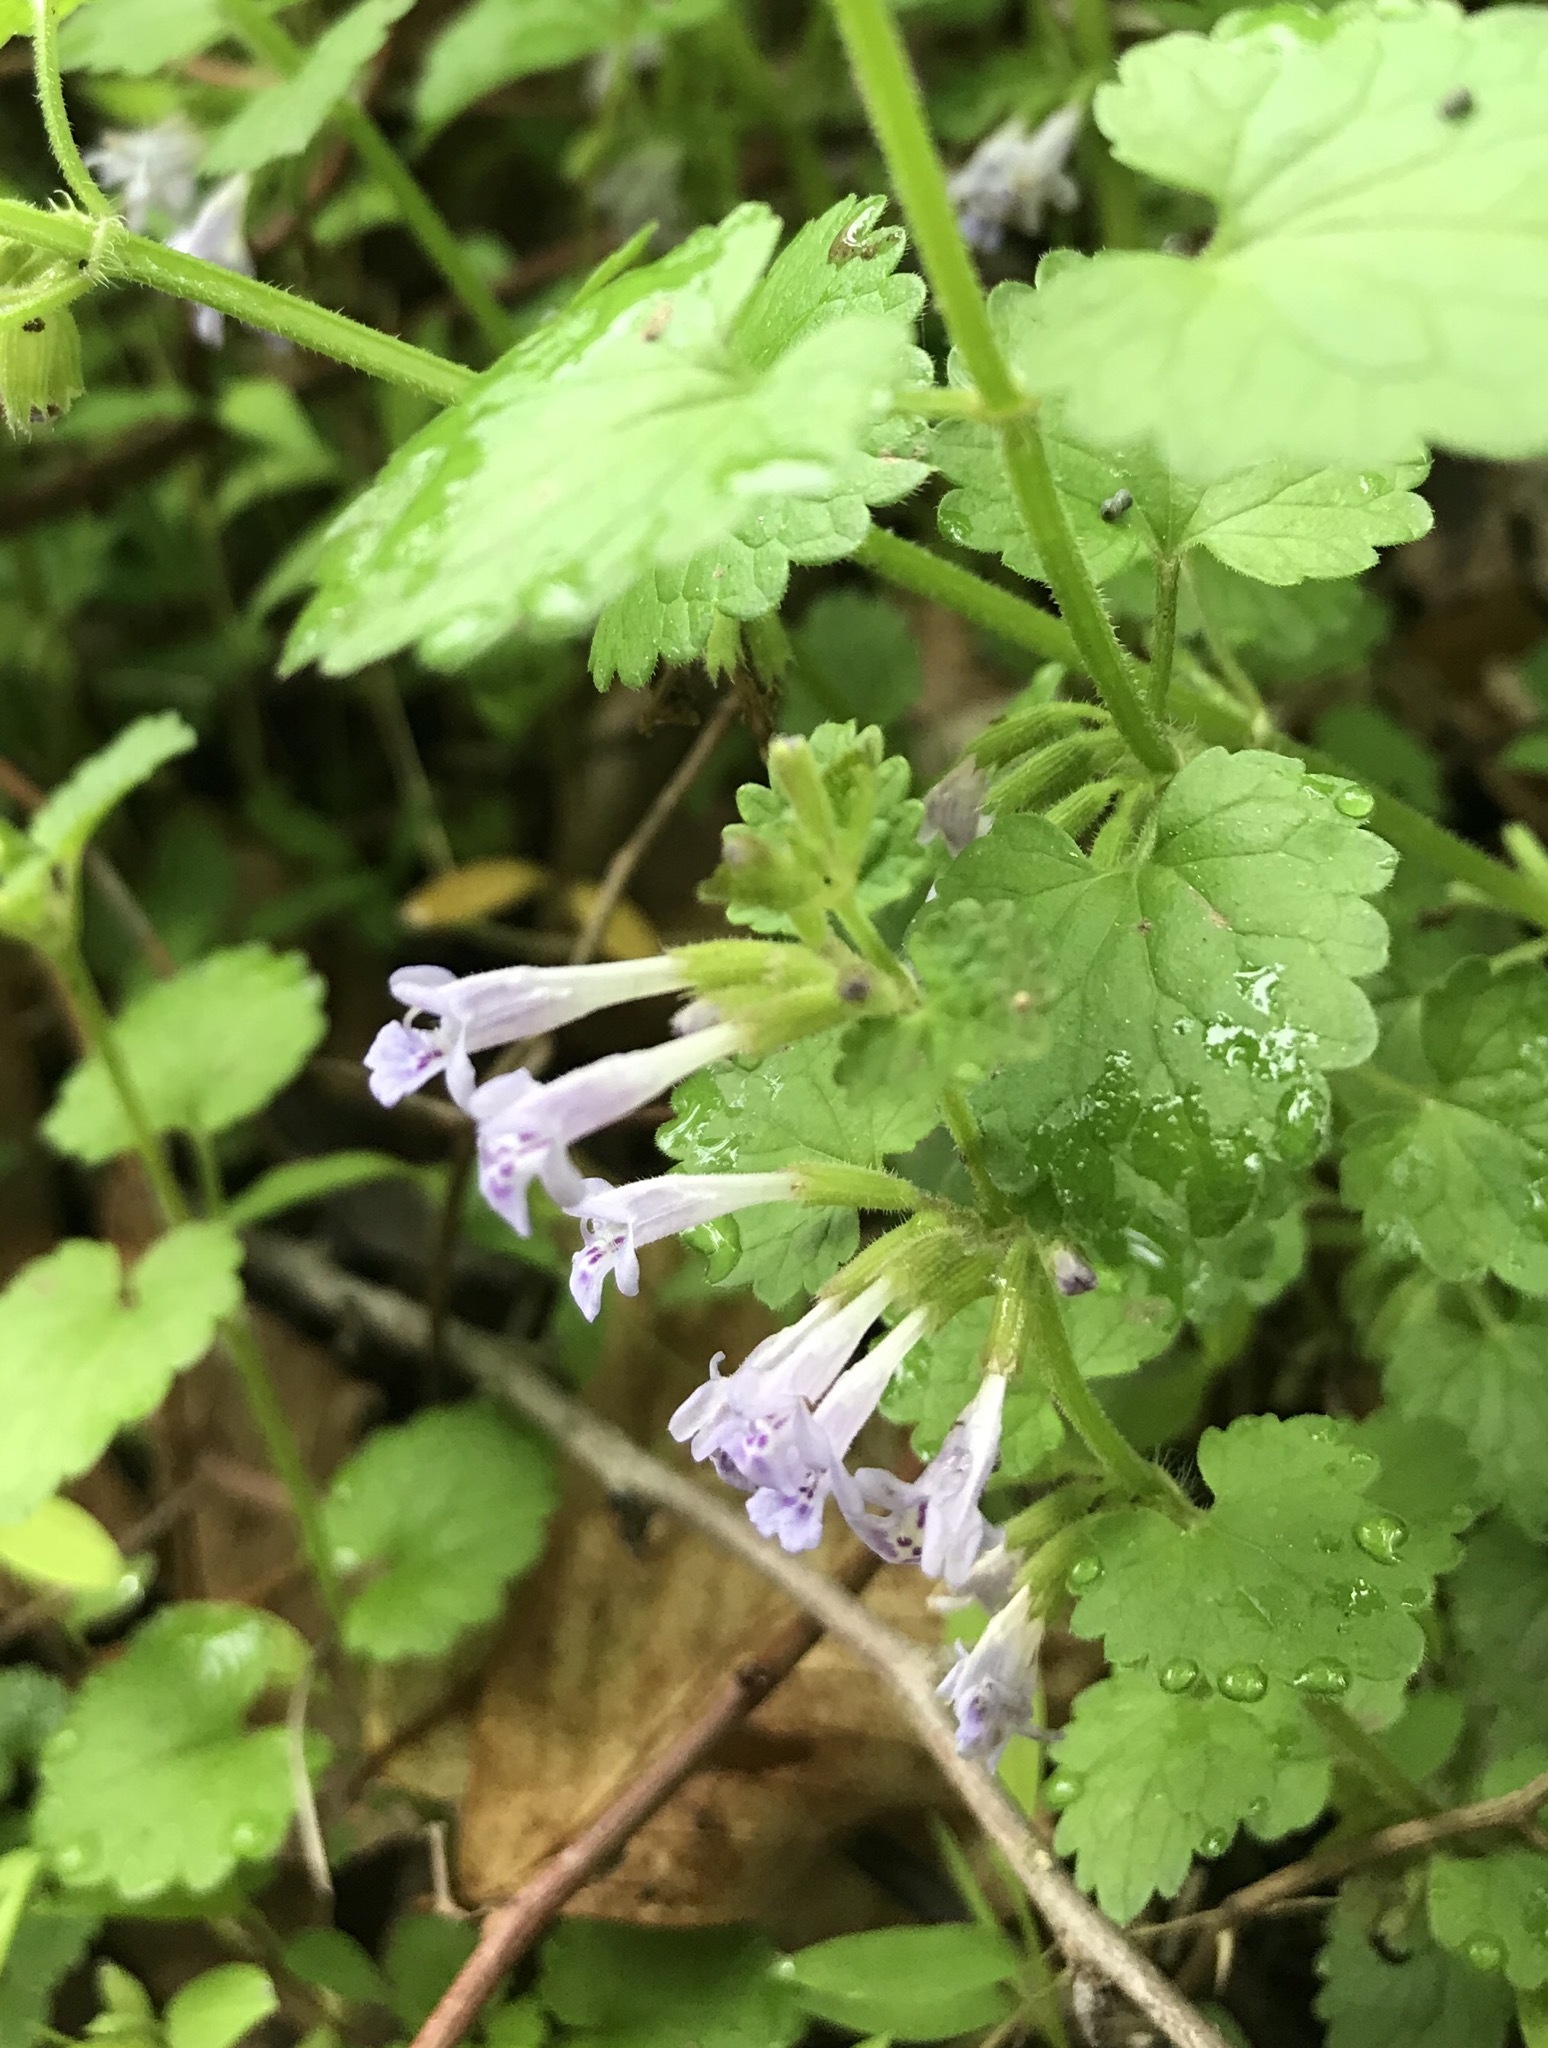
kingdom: Plantae
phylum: Tracheophyta
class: Magnoliopsida
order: Lamiales
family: Lamiaceae
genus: Glechoma
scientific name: Glechoma hederacea
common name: Ground ivy
